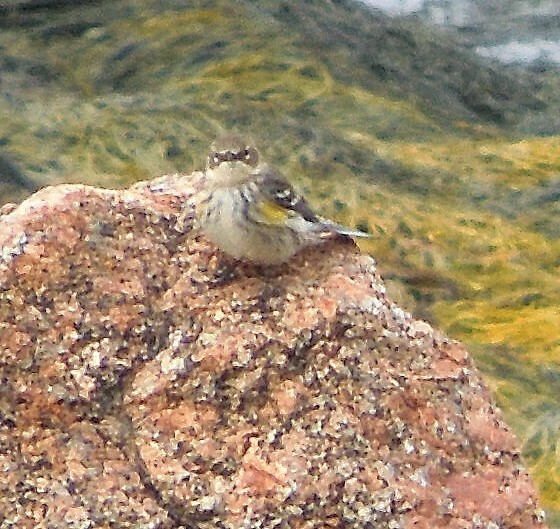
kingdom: Animalia
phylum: Chordata
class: Aves
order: Passeriformes
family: Parulidae
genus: Setophaga
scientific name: Setophaga coronata
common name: Myrtle warbler
